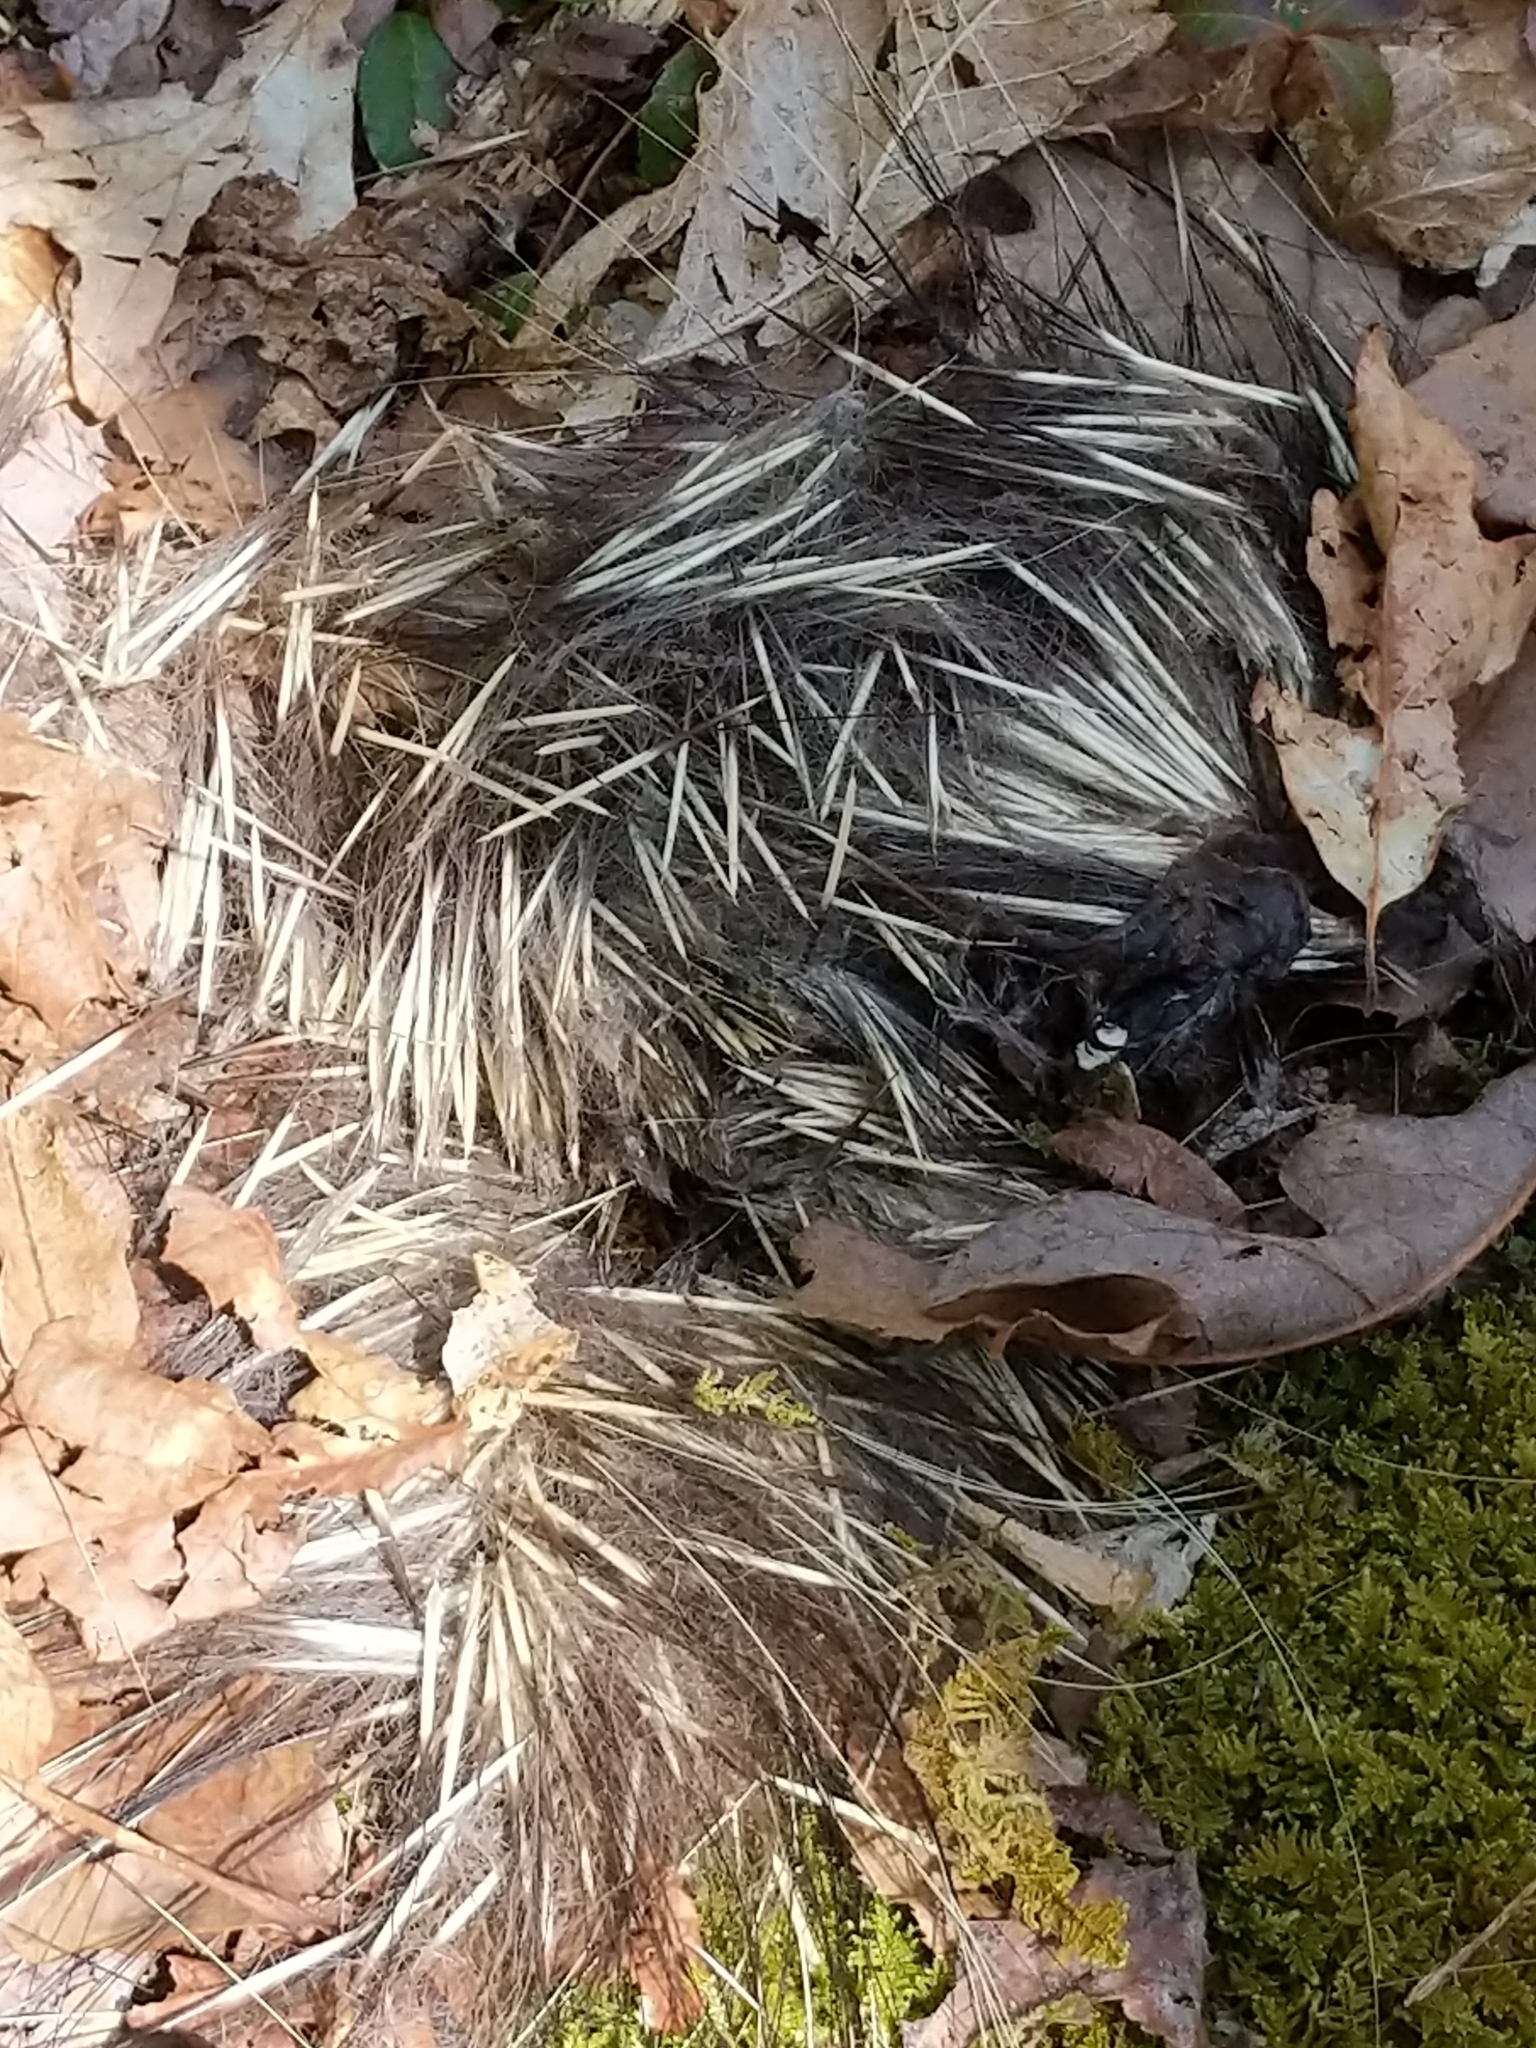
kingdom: Animalia
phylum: Chordata
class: Mammalia
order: Rodentia
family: Erethizontidae
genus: Erethizon
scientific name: Erethizon dorsatus
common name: North american porcupine
